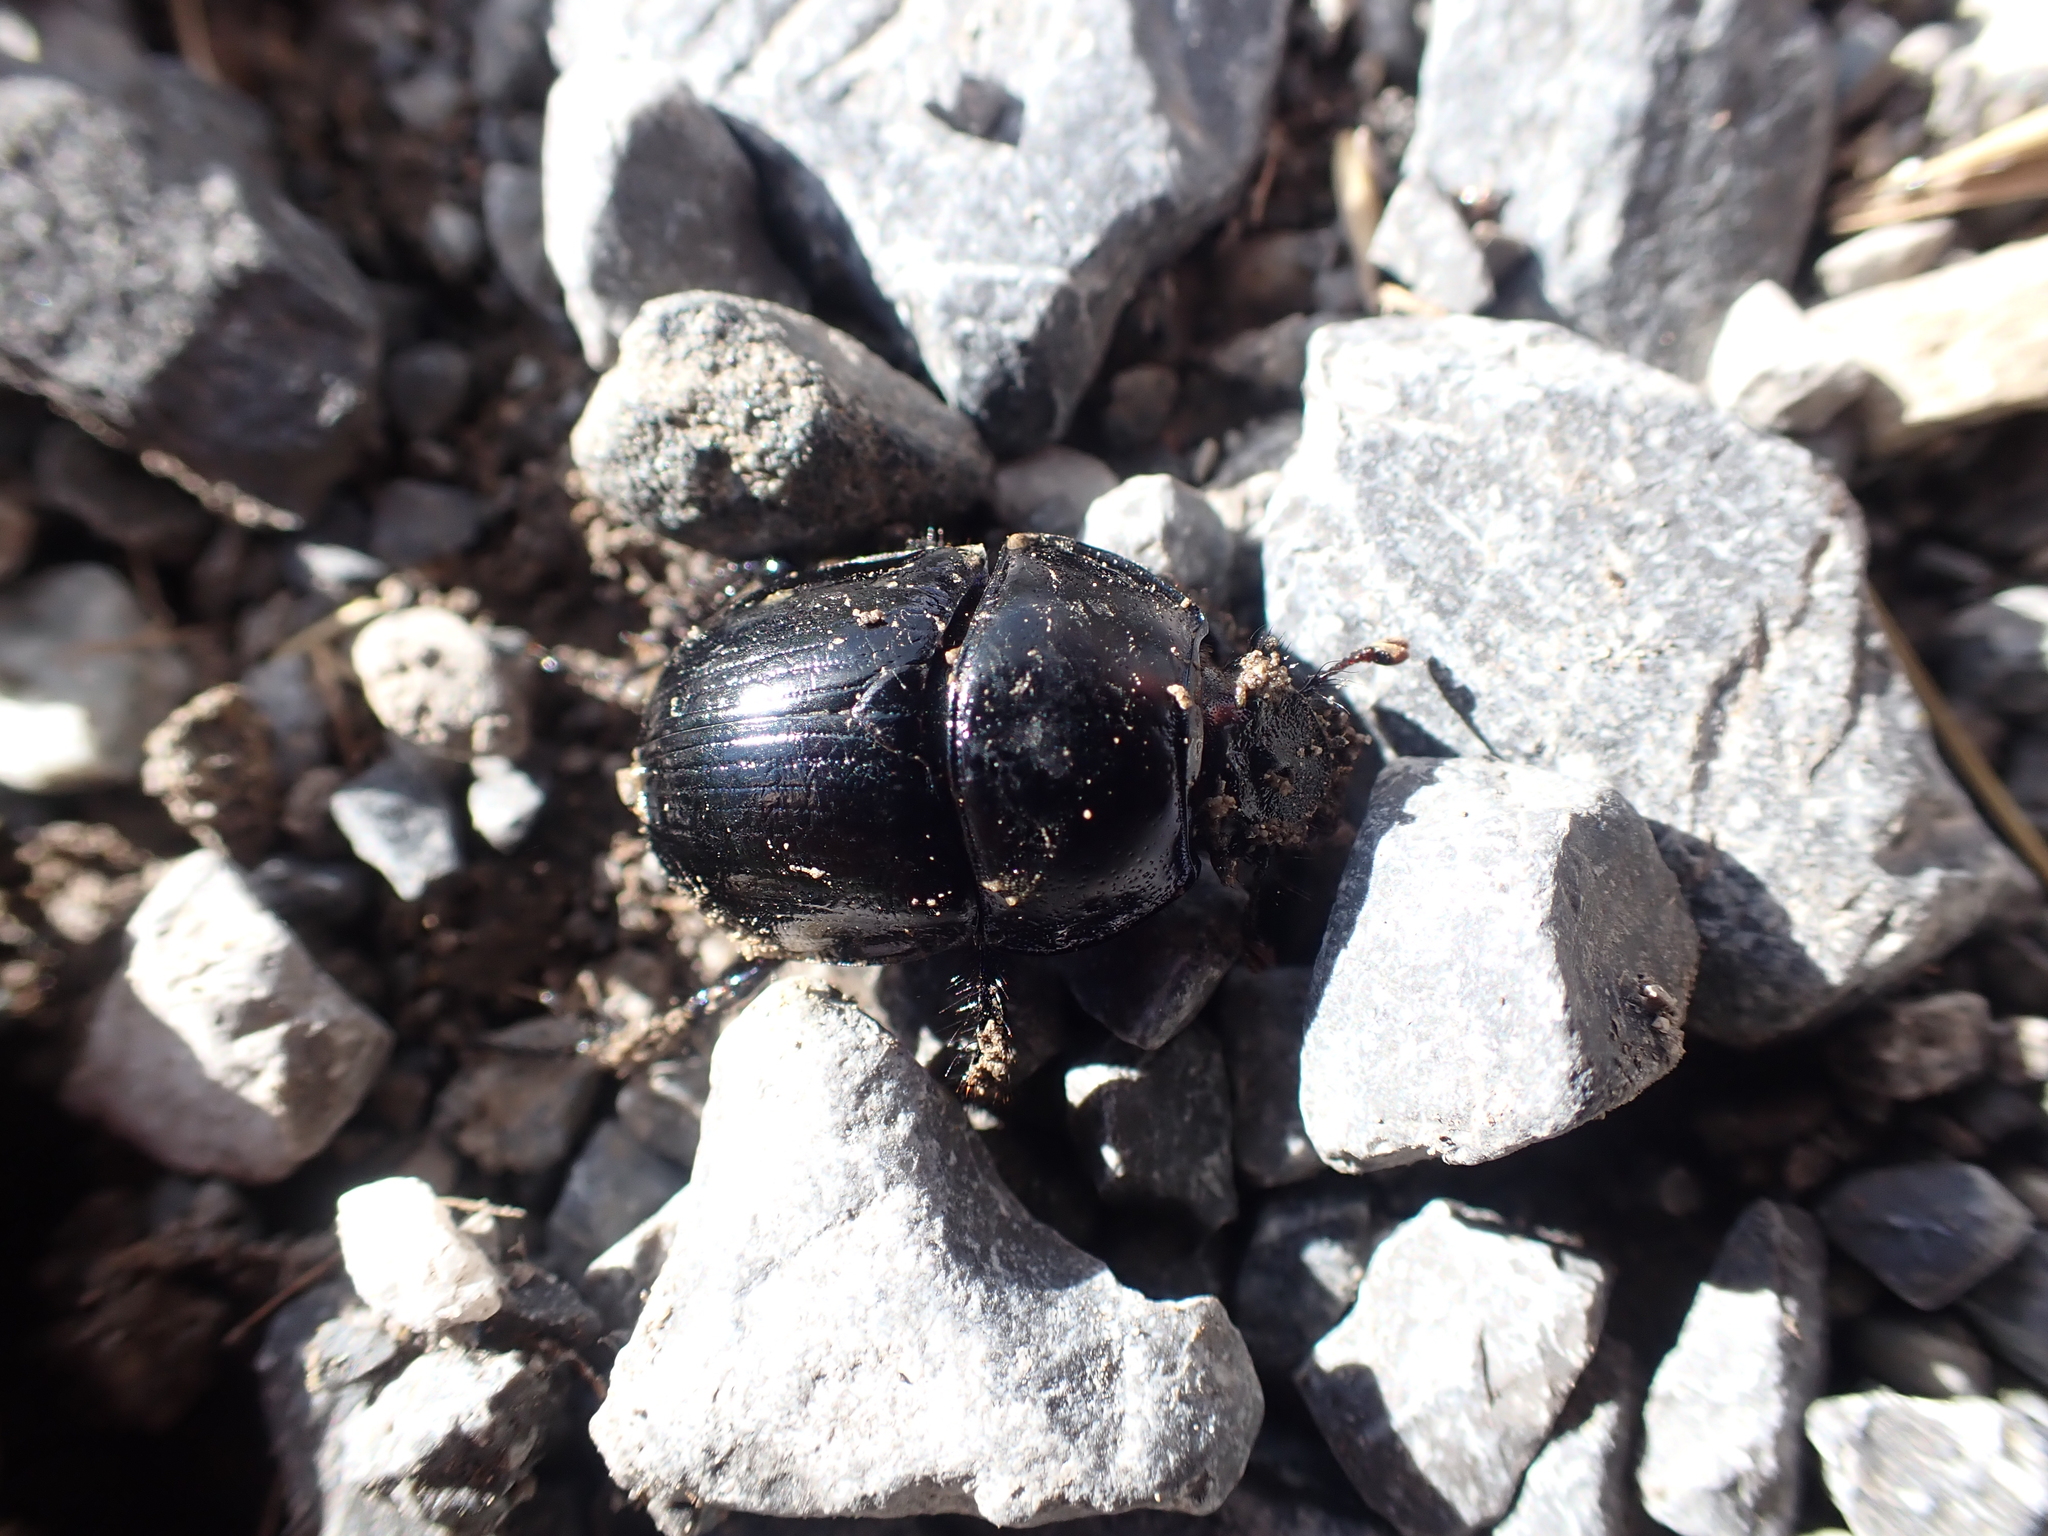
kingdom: Animalia
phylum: Arthropoda
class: Insecta
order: Coleoptera
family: Geotrupidae
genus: Anoplotrupes
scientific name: Anoplotrupes stercorosus
